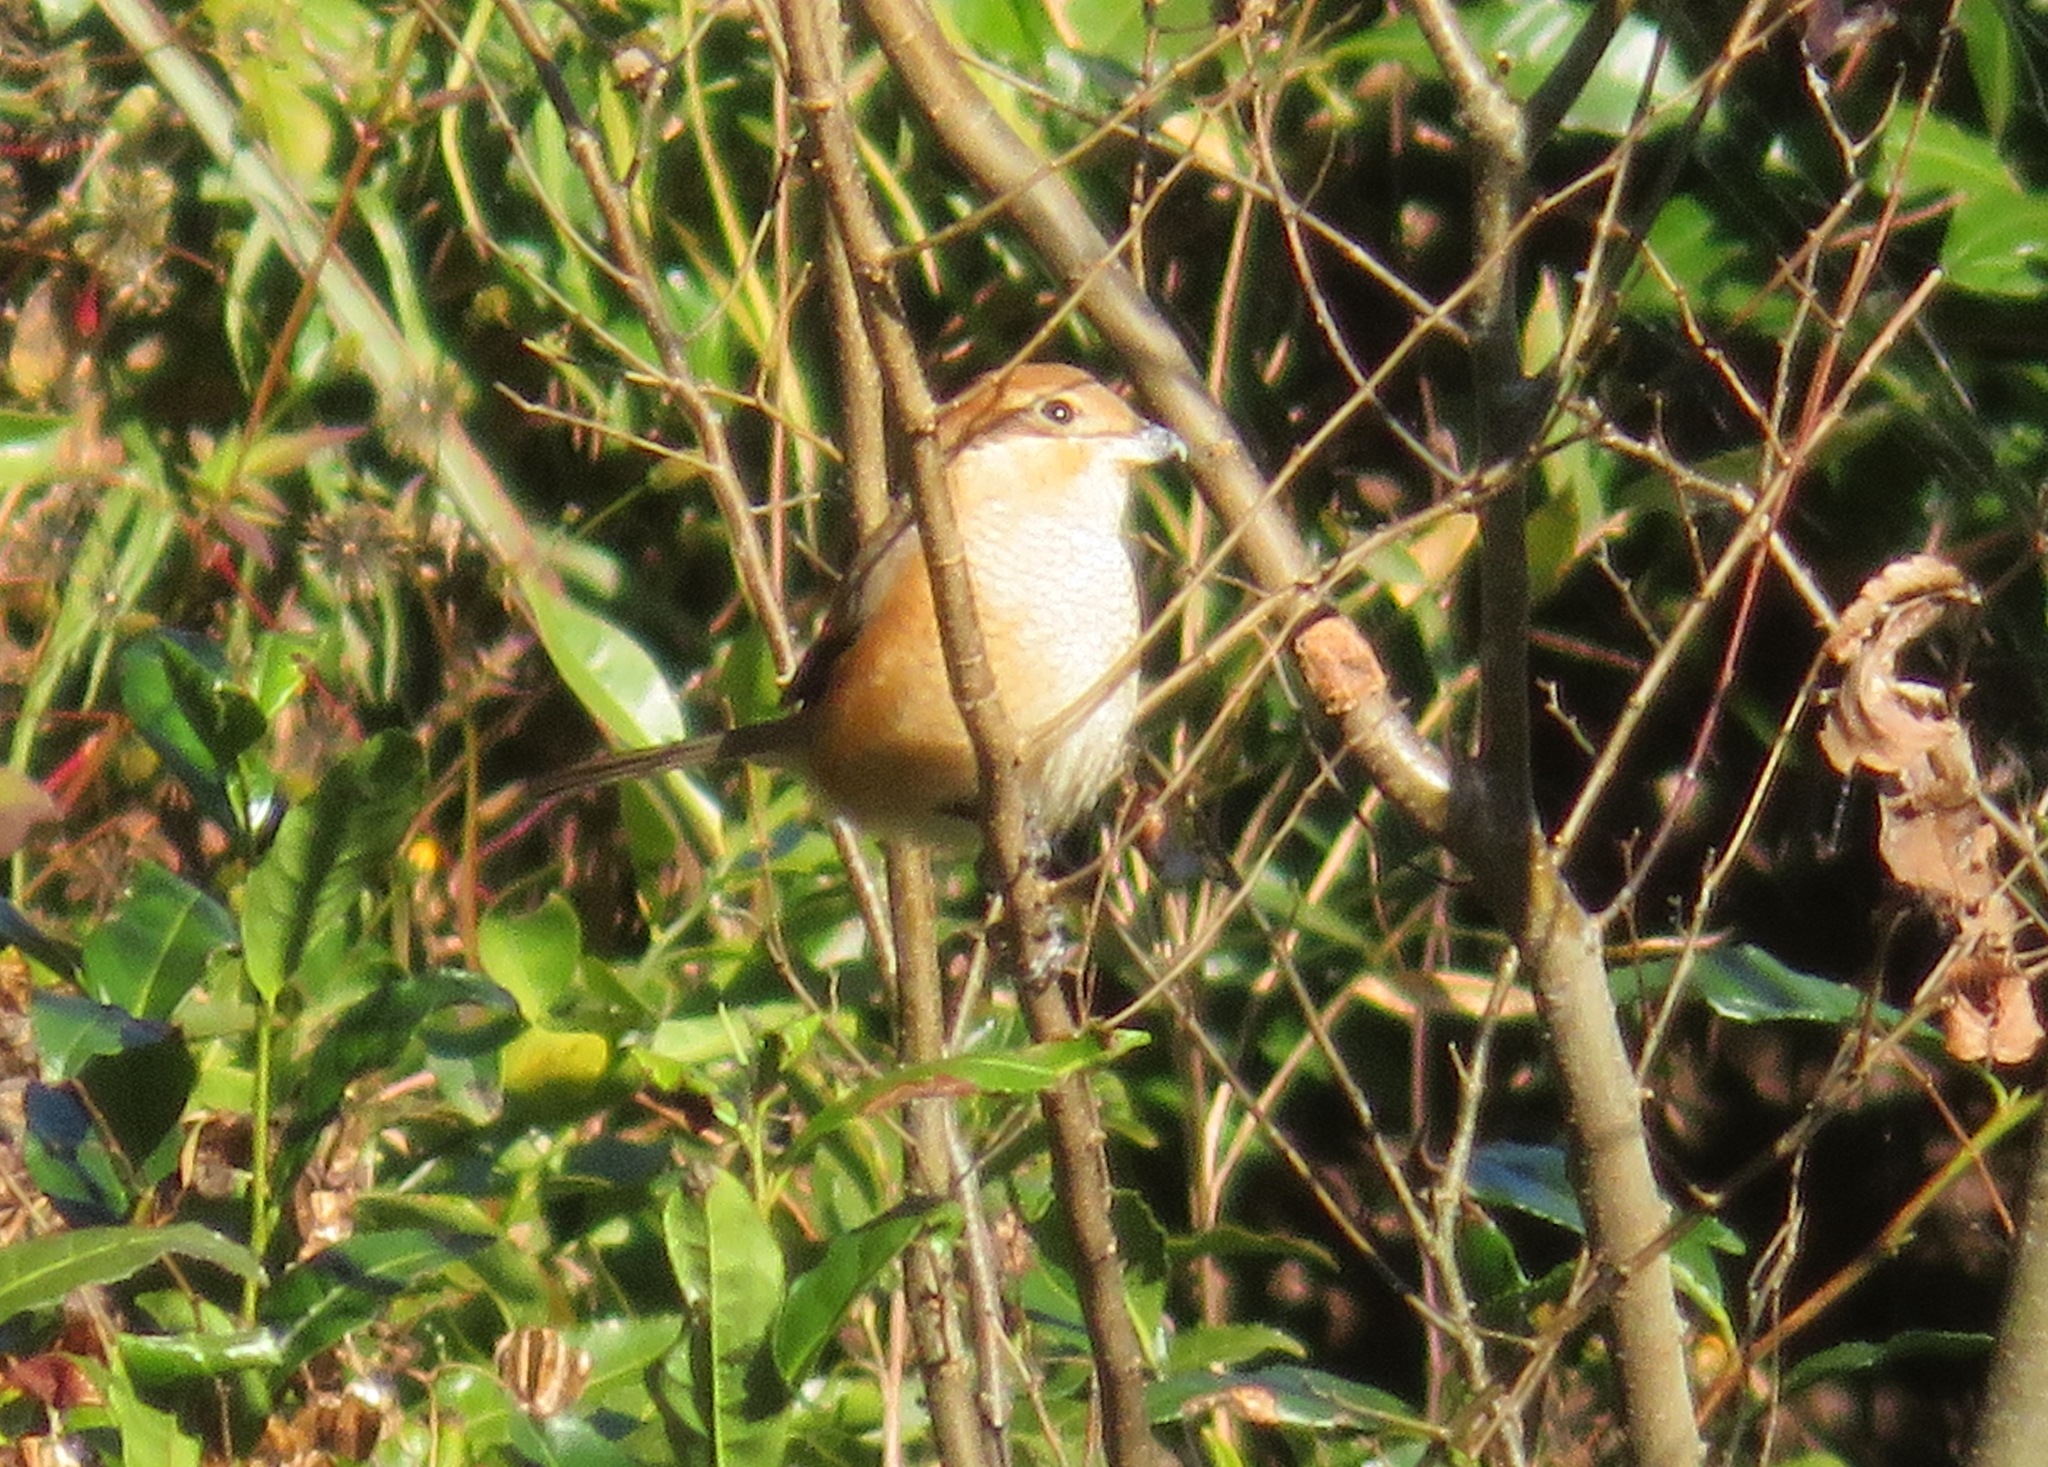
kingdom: Animalia
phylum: Chordata
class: Aves
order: Passeriformes
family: Laniidae
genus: Lanius
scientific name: Lanius bucephalus
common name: Bull-headed shrike
